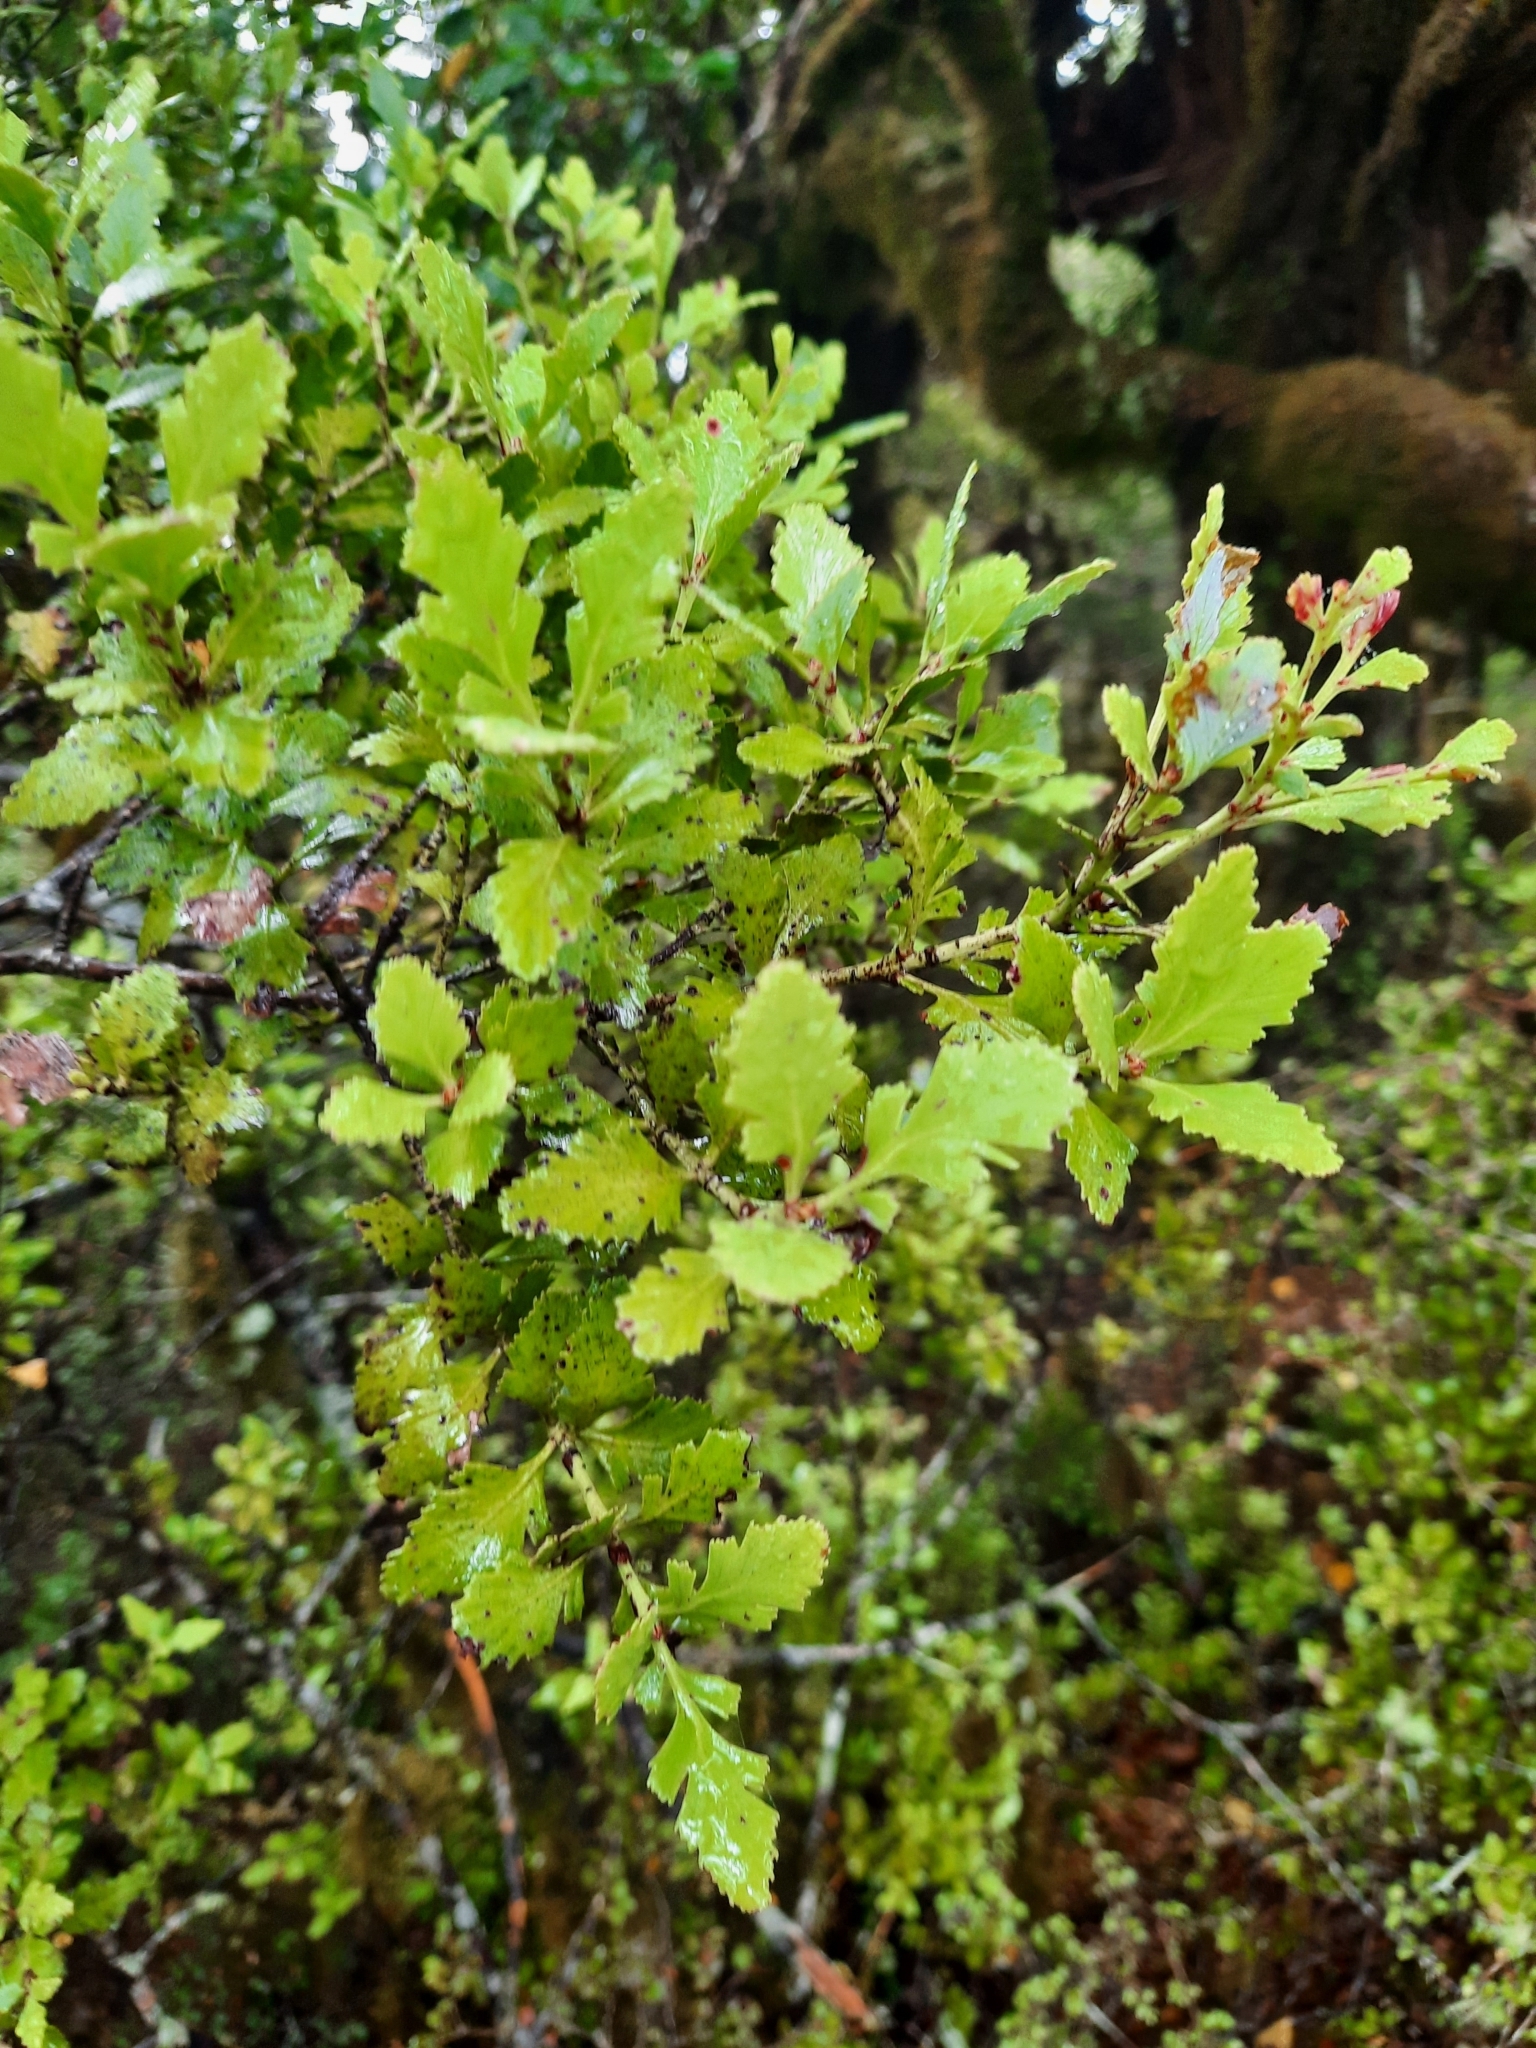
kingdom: Plantae
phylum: Tracheophyta
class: Pinopsida
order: Pinales
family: Phyllocladaceae
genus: Phyllocladus
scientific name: Phyllocladus trichomanoides
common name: Celery pine
